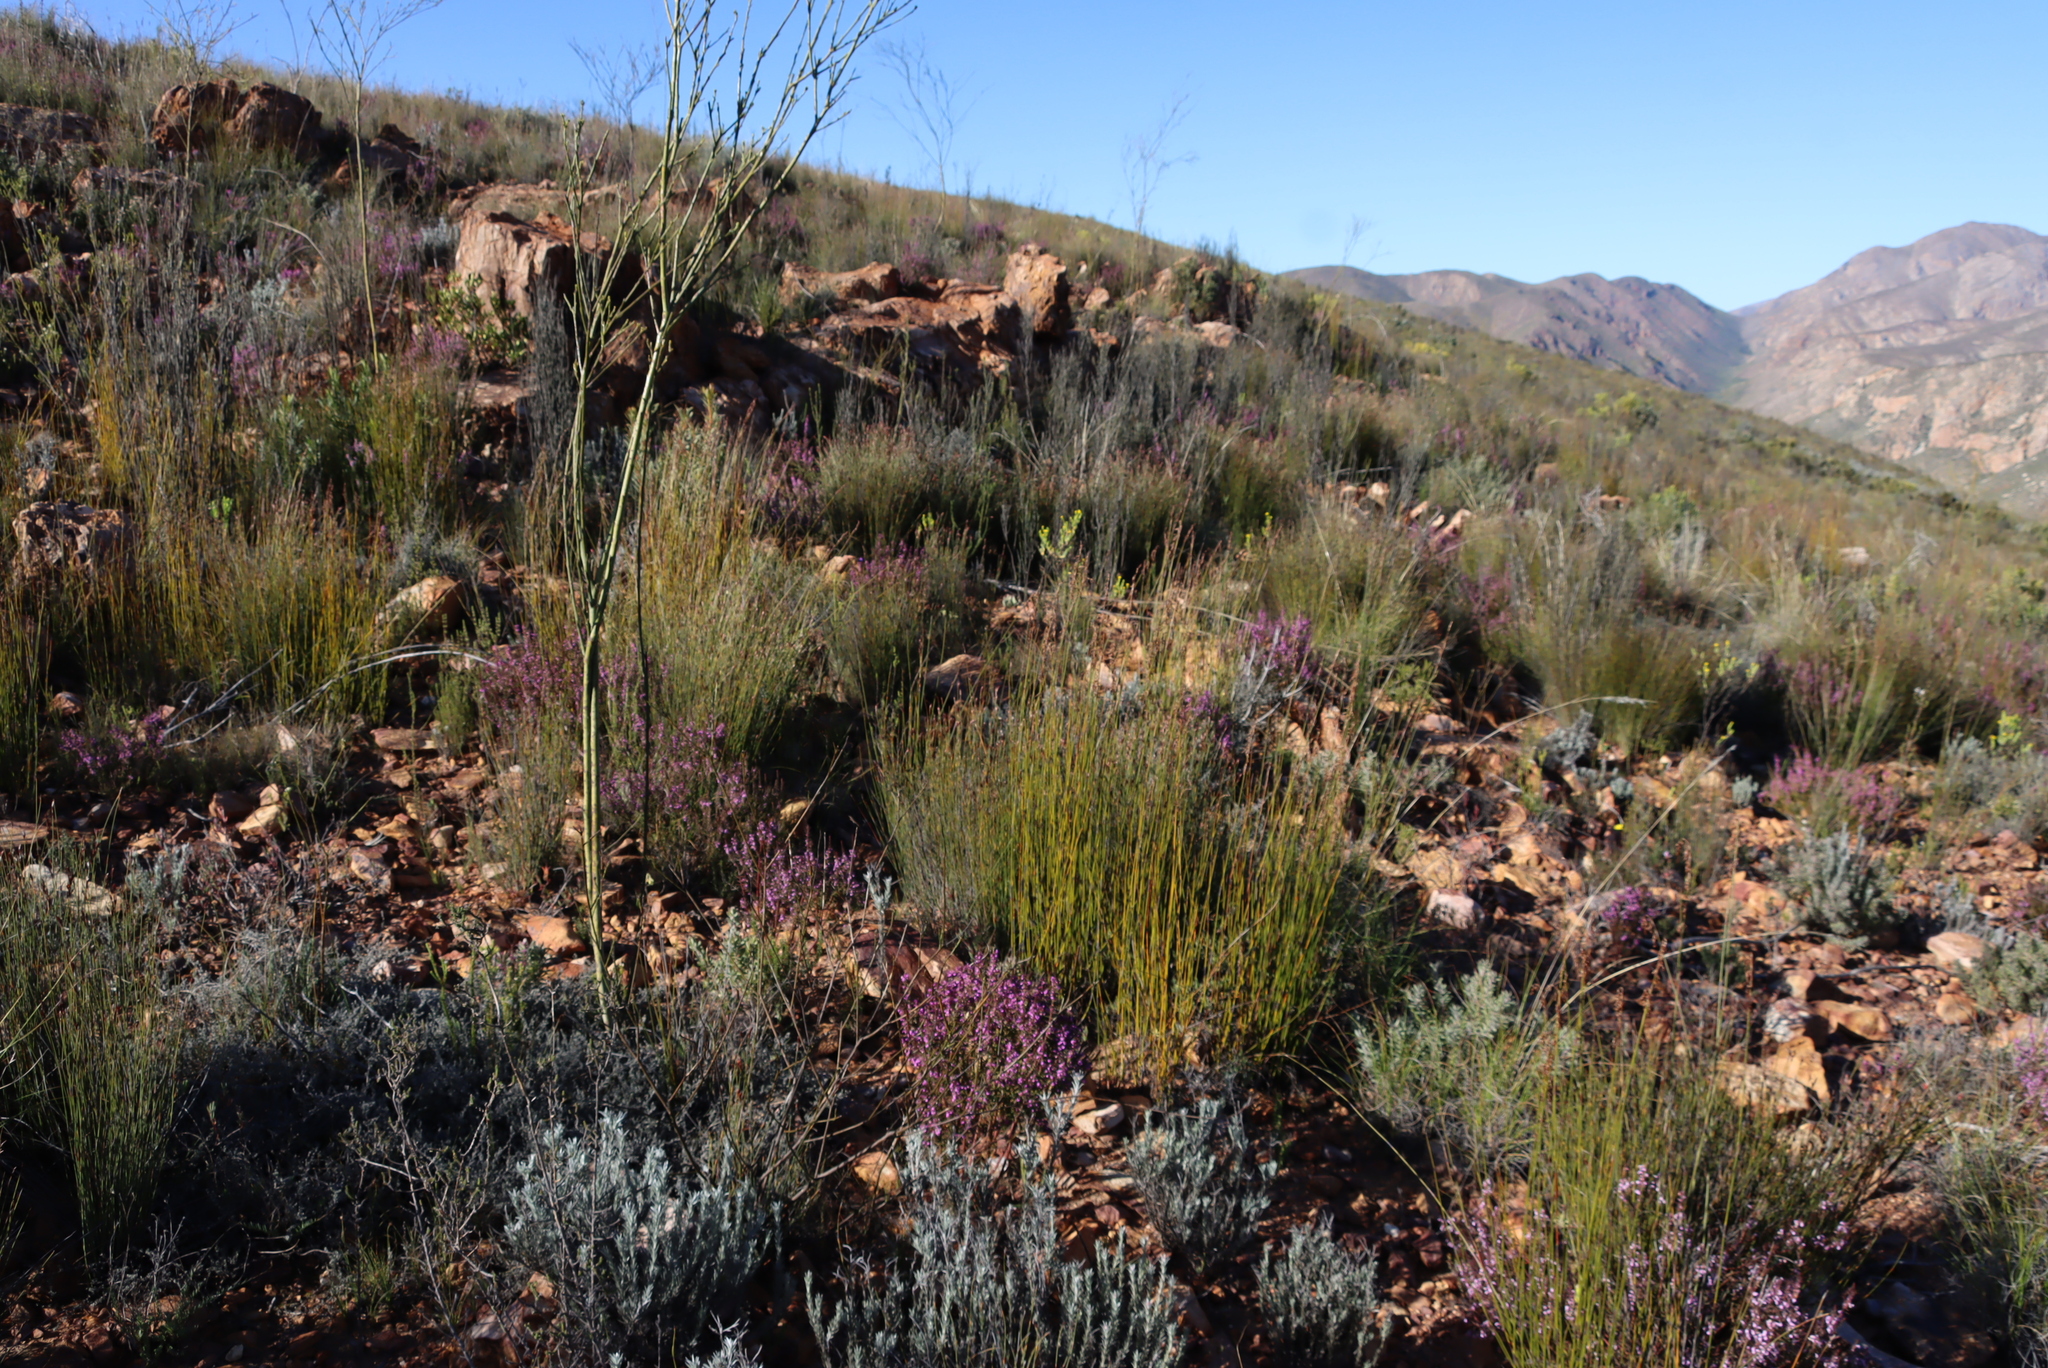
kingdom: Plantae
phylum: Tracheophyta
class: Magnoliopsida
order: Santalales
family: Thesiaceae
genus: Thesium
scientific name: Thesium strictum
